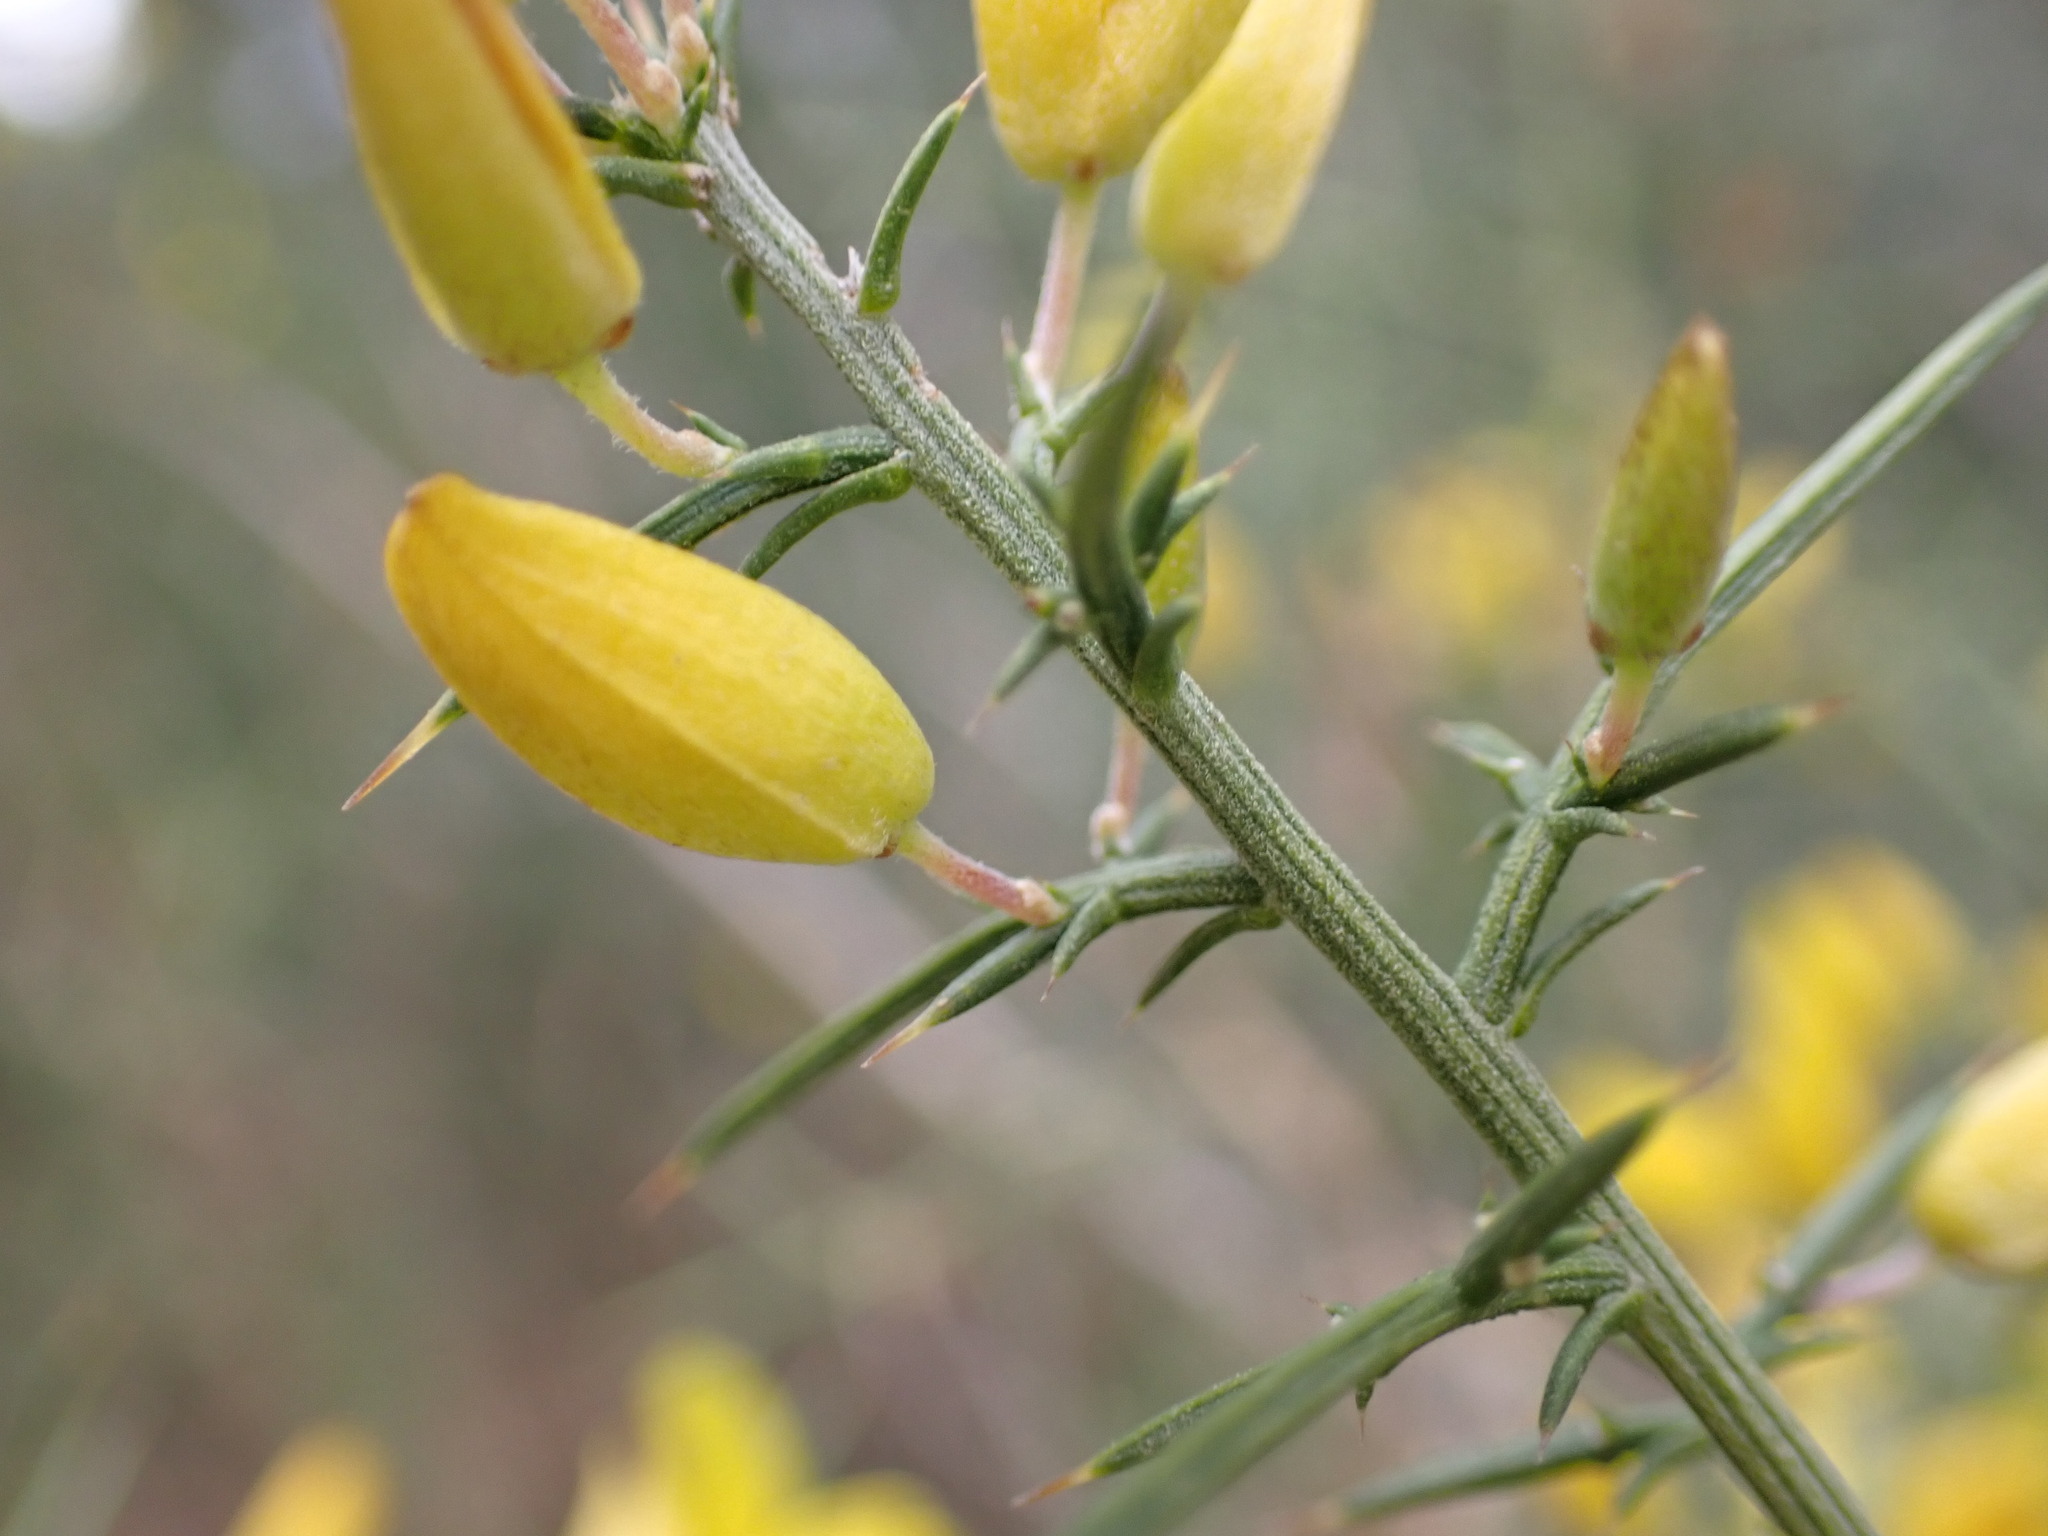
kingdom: Plantae
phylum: Tracheophyta
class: Magnoliopsida
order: Fabales
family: Fabaceae
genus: Ulex
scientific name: Ulex parviflorus
